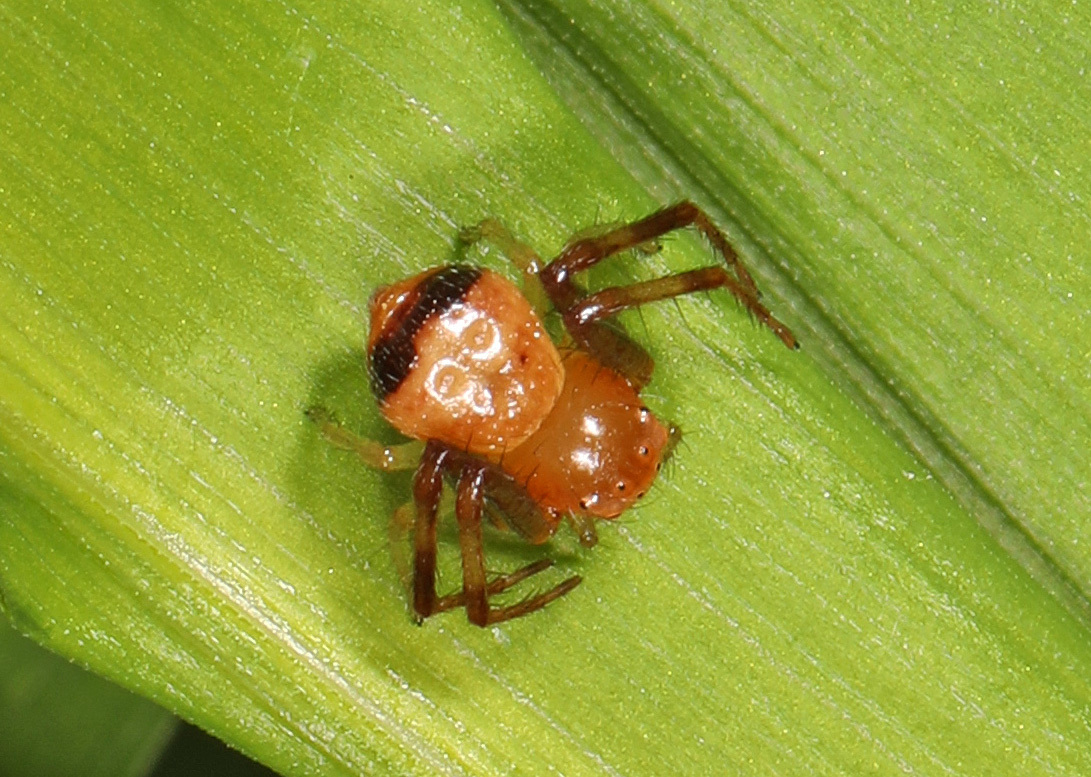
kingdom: Animalia
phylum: Arthropoda
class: Arachnida
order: Araneae
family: Thomisidae
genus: Synema
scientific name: Synema parvulum
